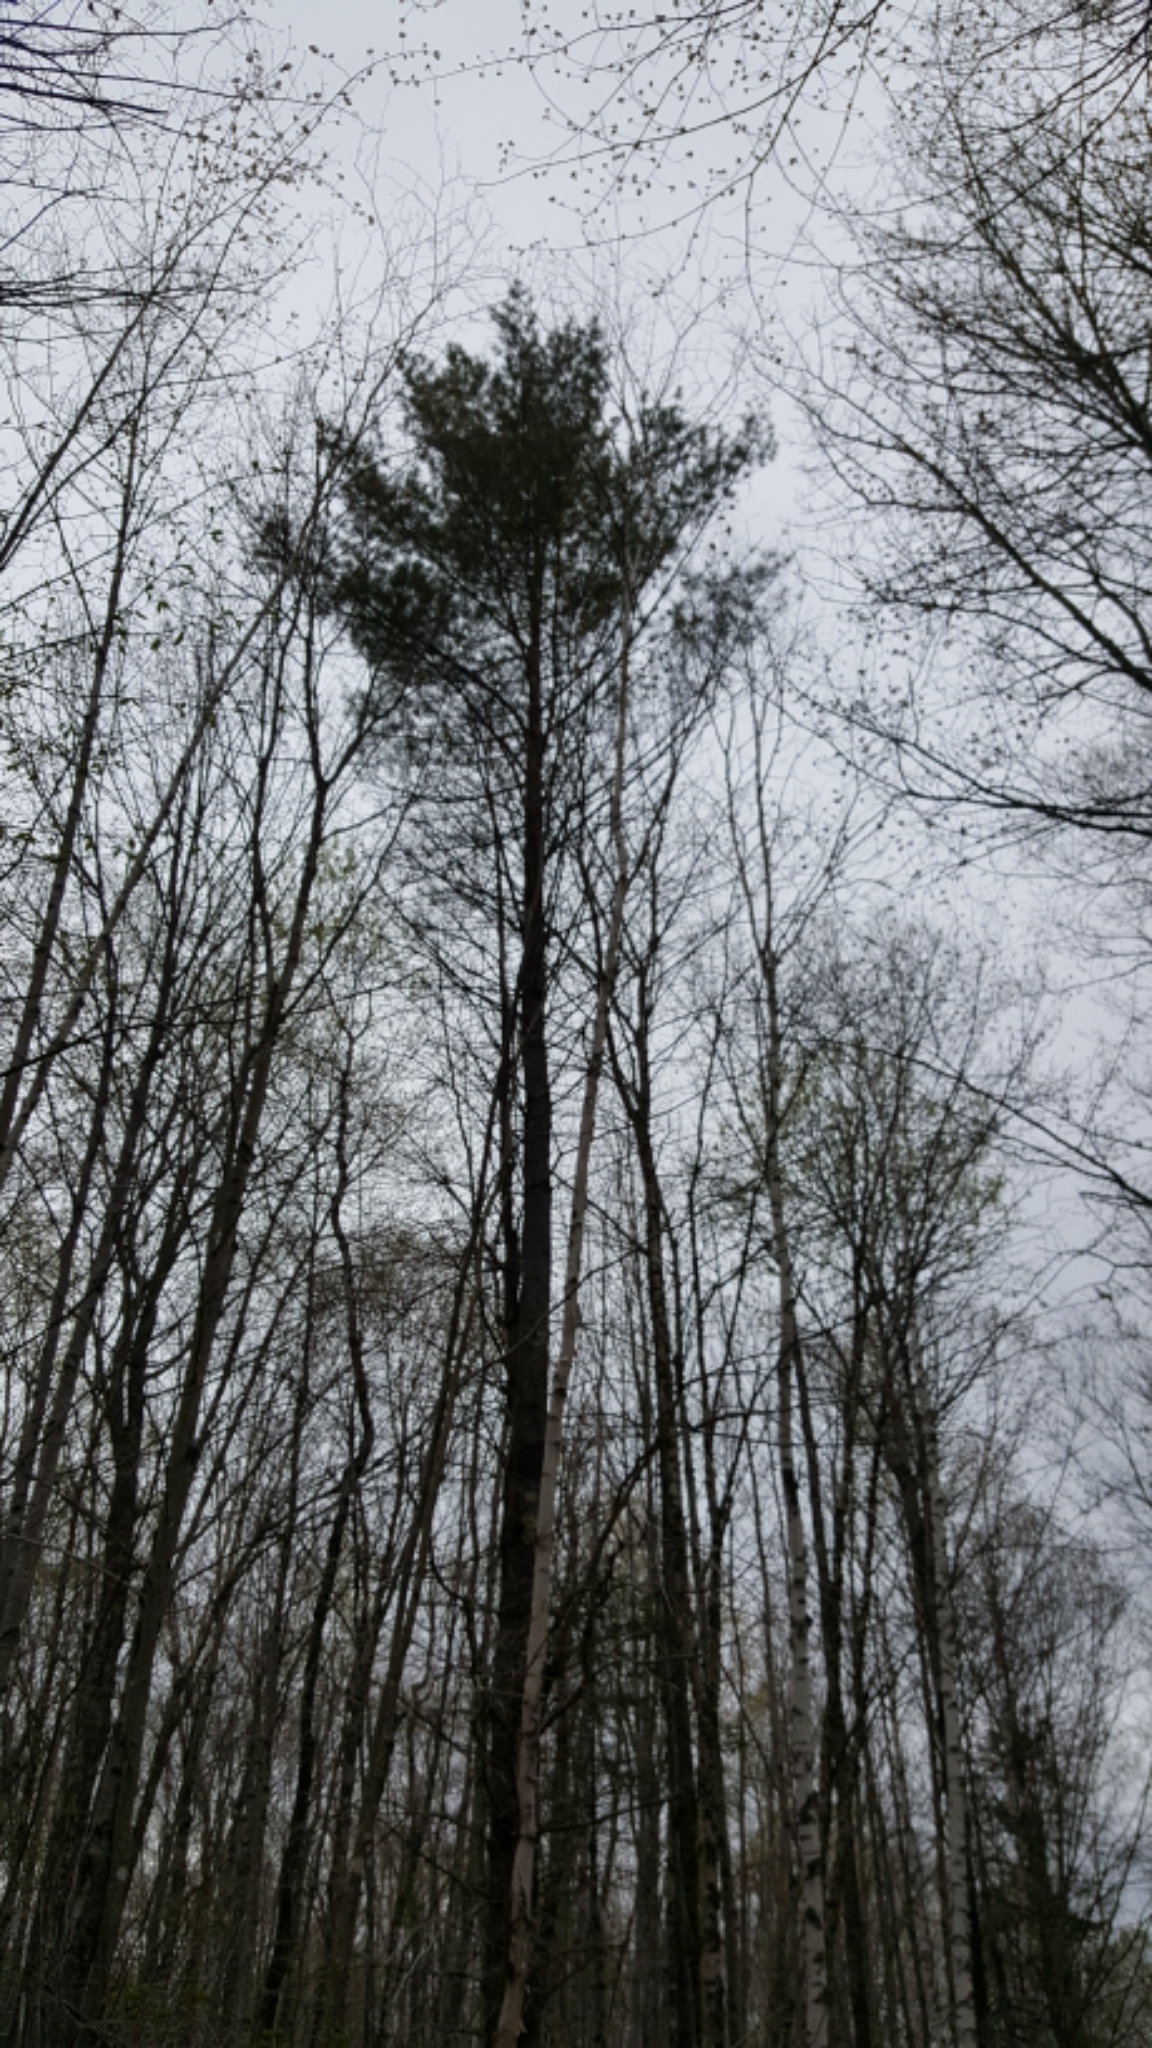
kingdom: Plantae
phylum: Tracheophyta
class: Pinopsida
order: Pinales
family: Pinaceae
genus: Pinus
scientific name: Pinus strobus
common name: Weymouth pine
